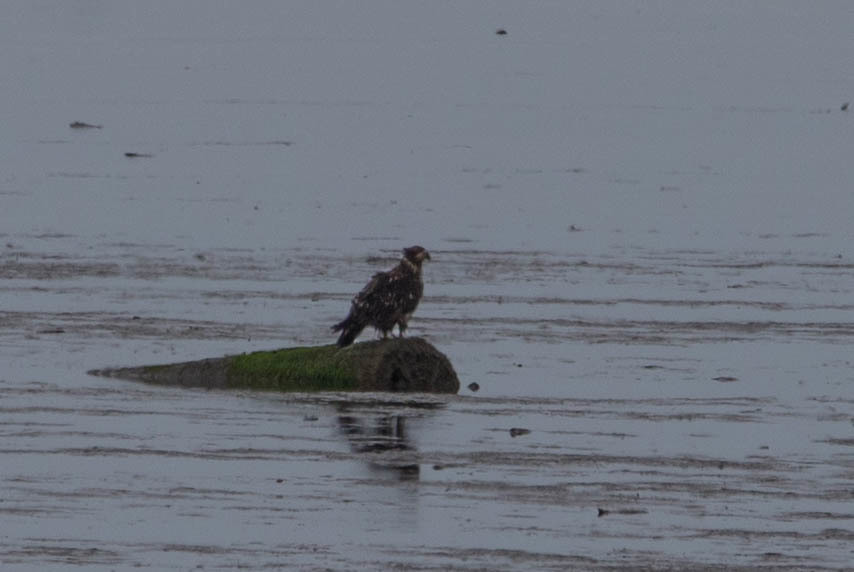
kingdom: Animalia
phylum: Chordata
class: Aves
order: Accipitriformes
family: Accipitridae
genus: Haliaeetus
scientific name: Haliaeetus leucocephalus
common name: Bald eagle
